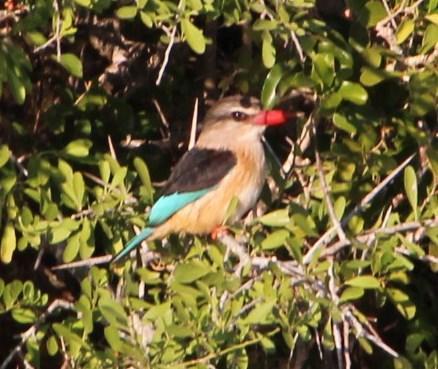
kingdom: Animalia
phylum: Chordata
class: Aves
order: Coraciiformes
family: Alcedinidae
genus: Halcyon
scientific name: Halcyon albiventris
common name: Brown-hooded kingfisher
